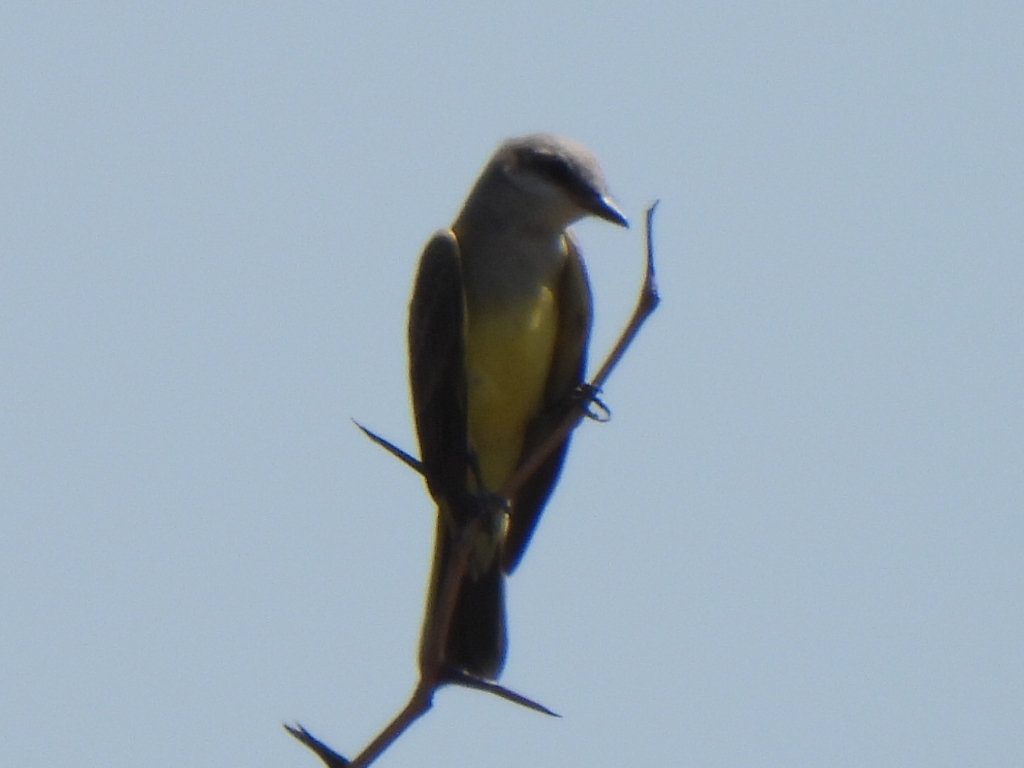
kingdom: Animalia
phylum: Chordata
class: Aves
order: Passeriformes
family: Tyrannidae
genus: Tyrannus
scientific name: Tyrannus verticalis
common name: Western kingbird
